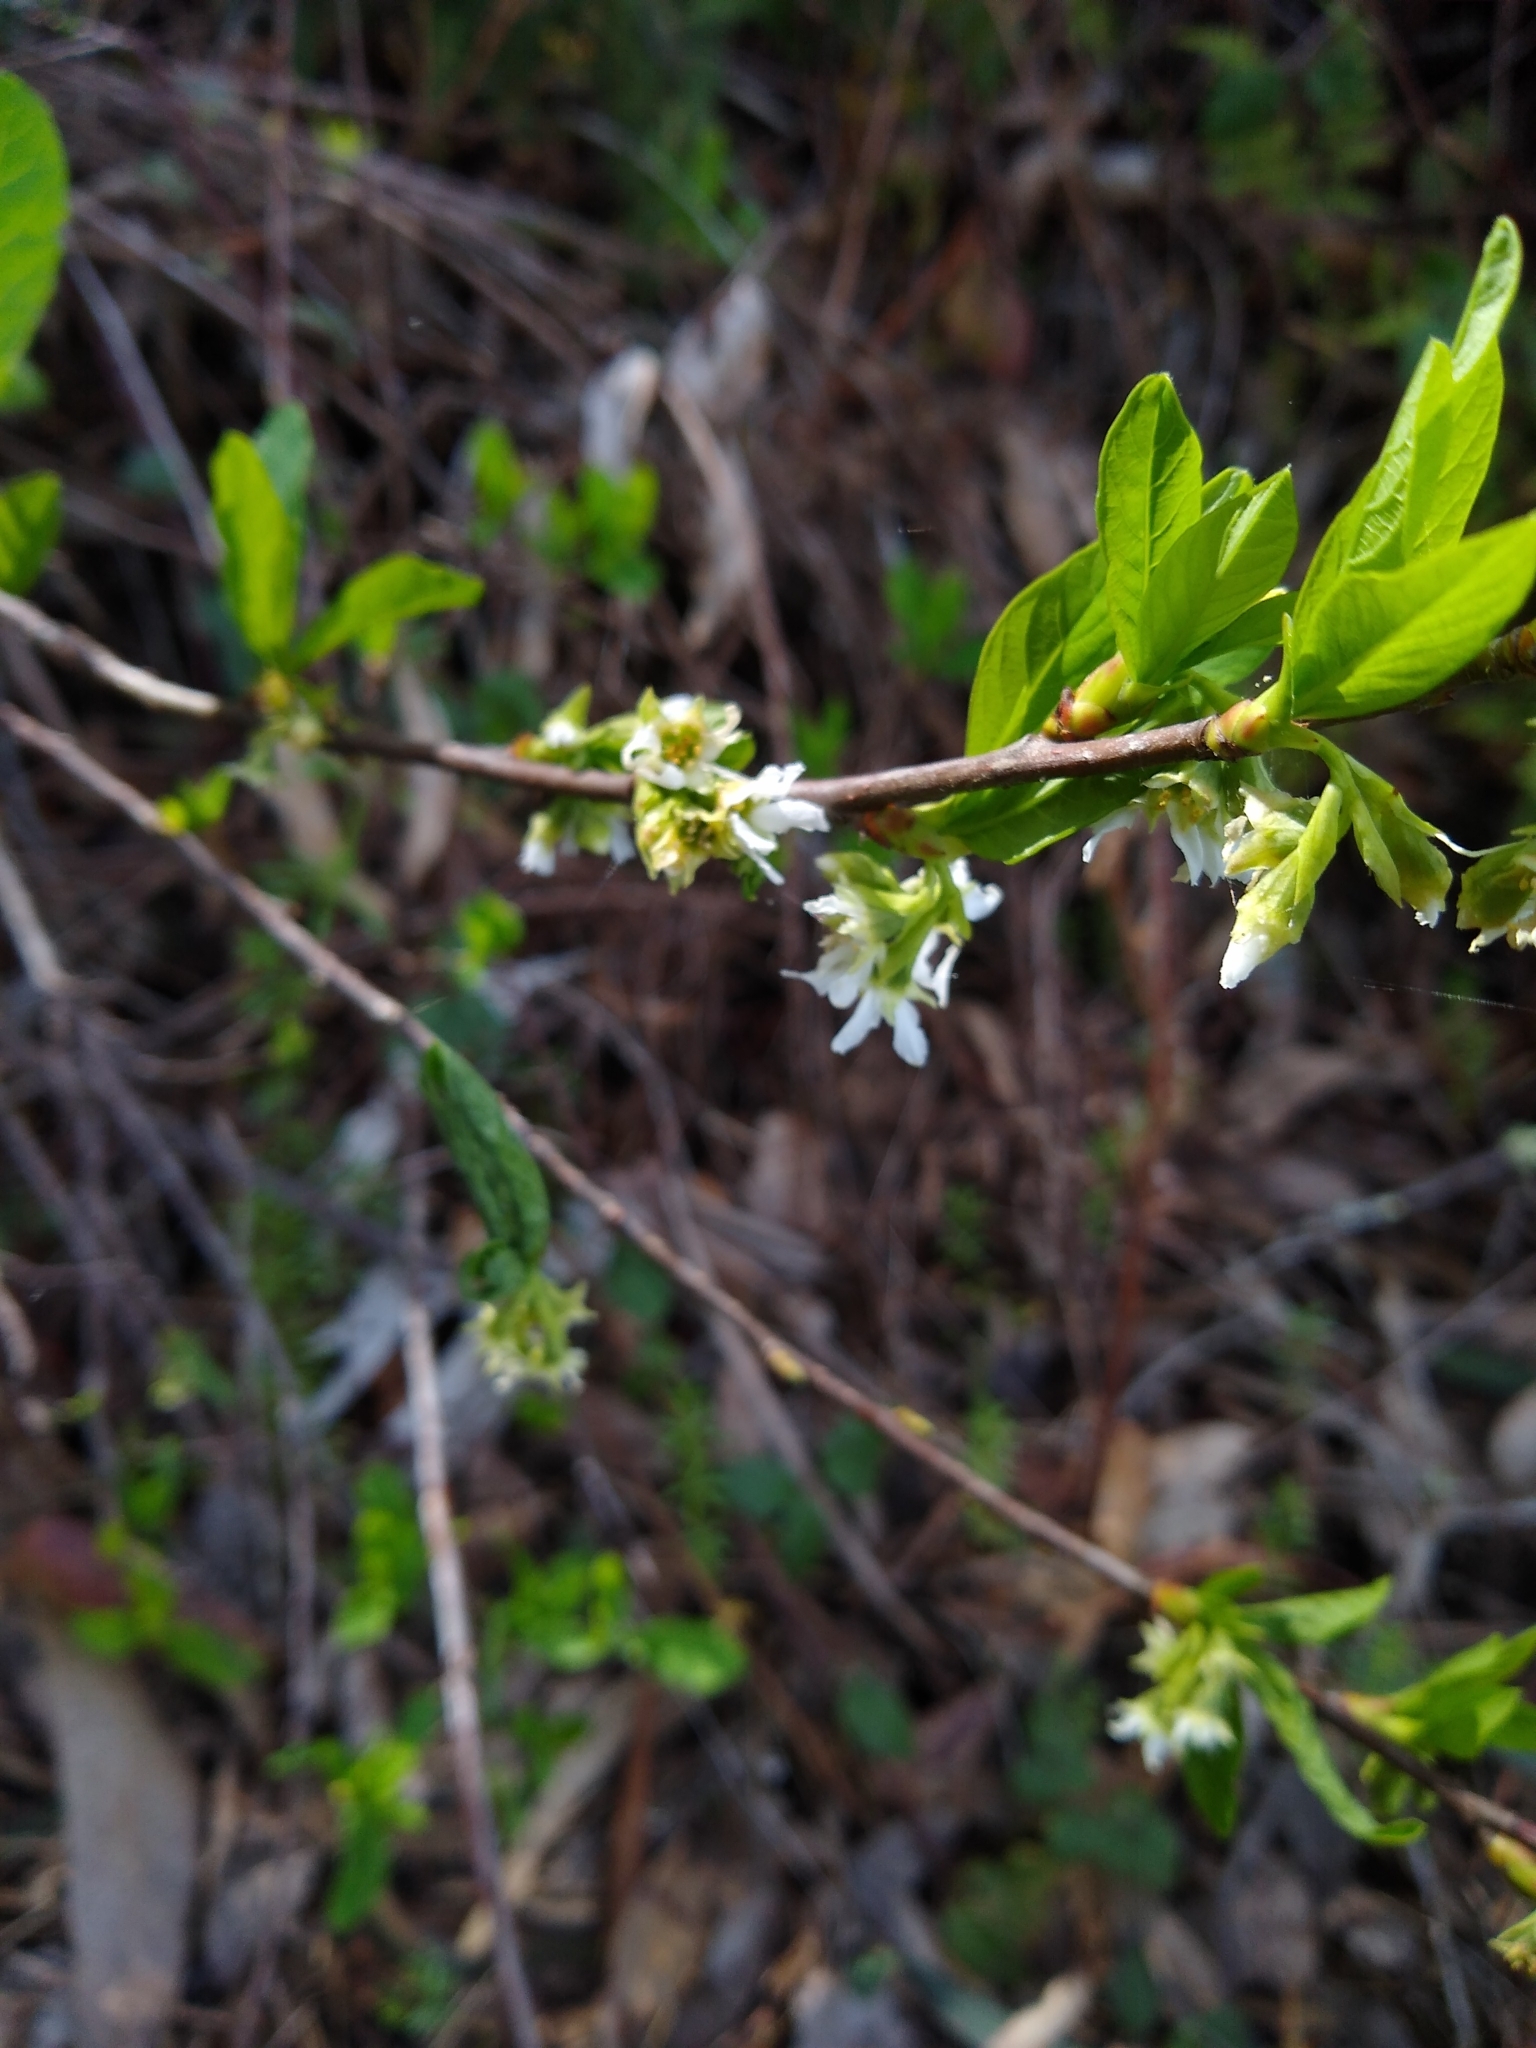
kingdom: Plantae
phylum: Tracheophyta
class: Magnoliopsida
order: Rosales
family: Rosaceae
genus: Oemleria
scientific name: Oemleria cerasiformis
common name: Osoberry
